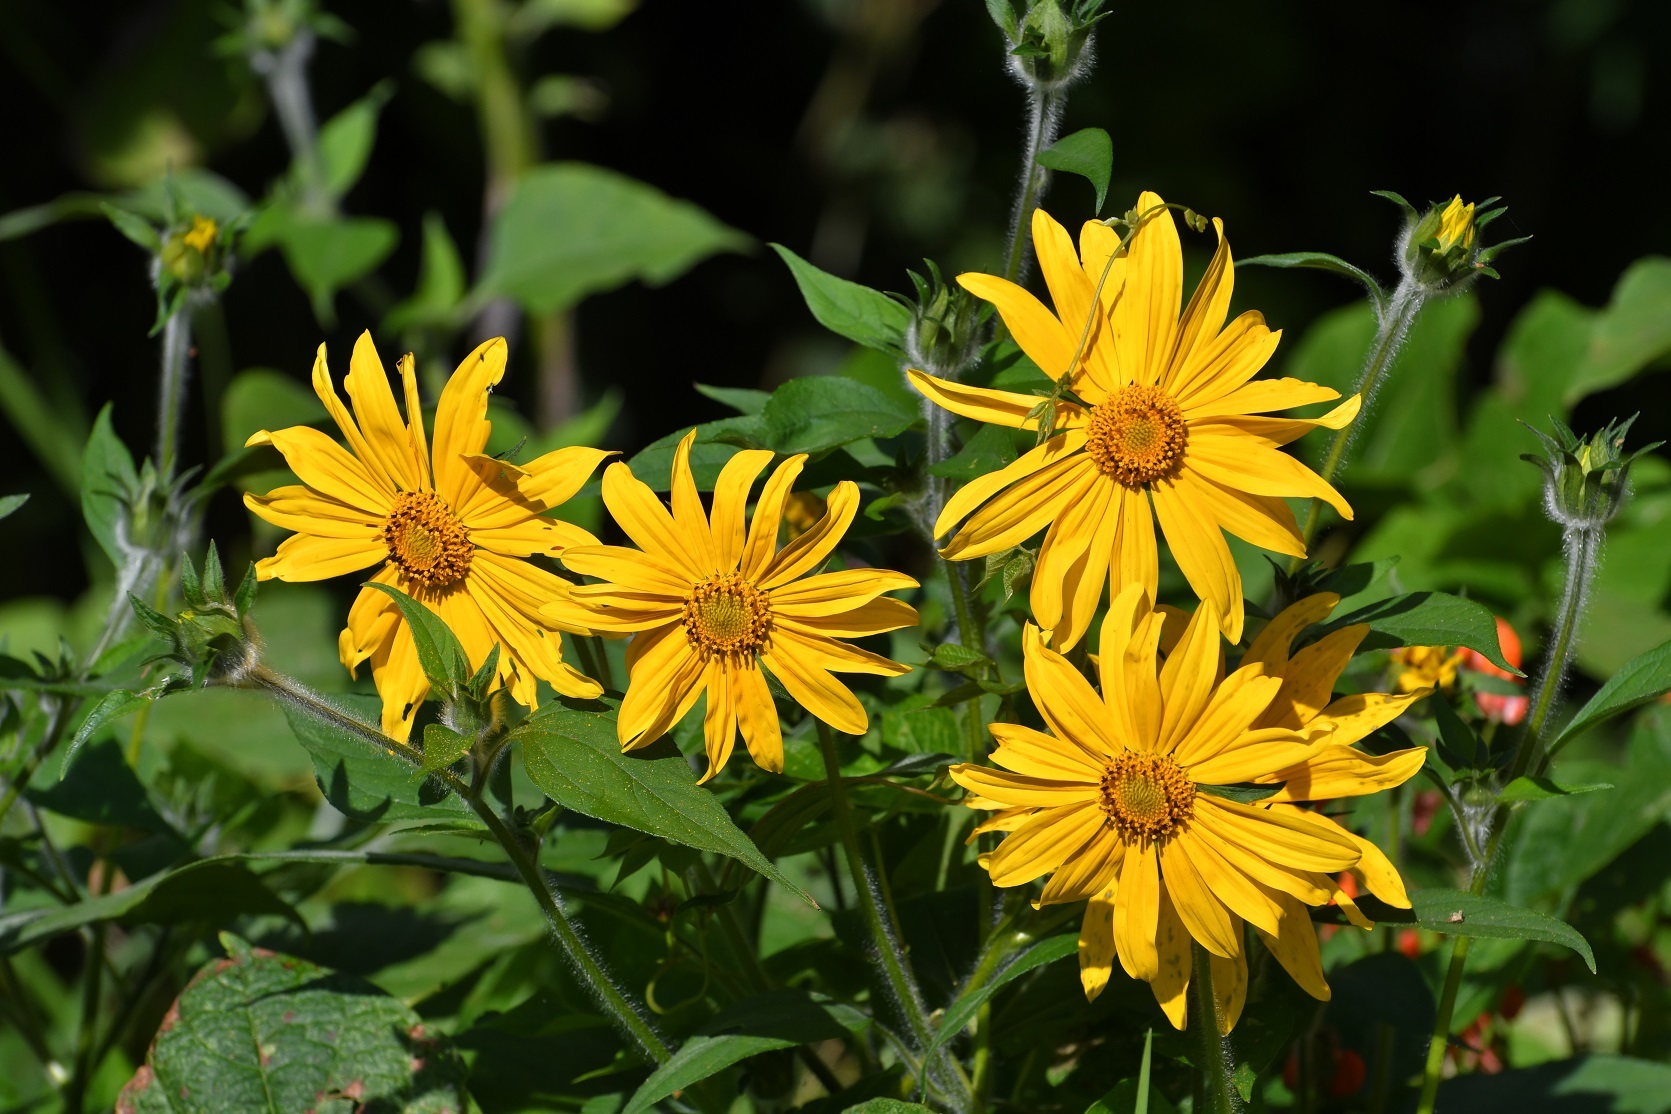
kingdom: Plantae
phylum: Tracheophyta
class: Magnoliopsida
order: Asterales
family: Asteraceae
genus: Tithonia
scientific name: Tithonia tubaeformis
